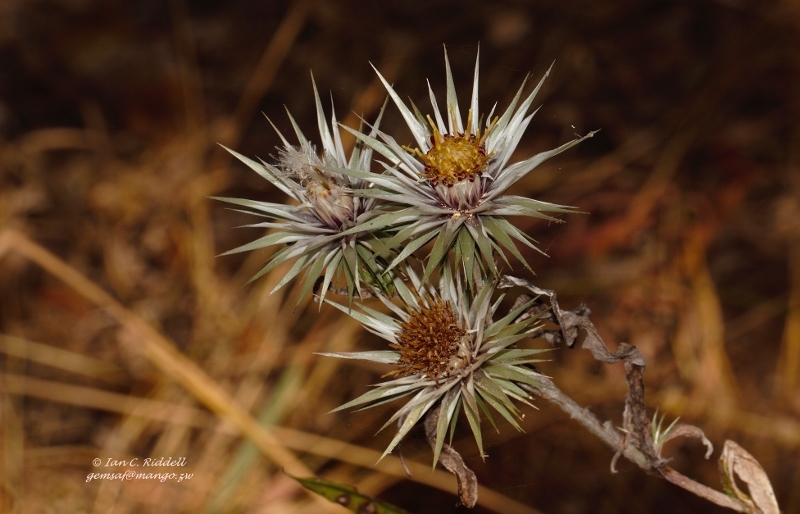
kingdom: Plantae
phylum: Tracheophyta
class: Magnoliopsida
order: Asterales
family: Asteraceae
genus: Macledium
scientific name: Macledium kirkii
